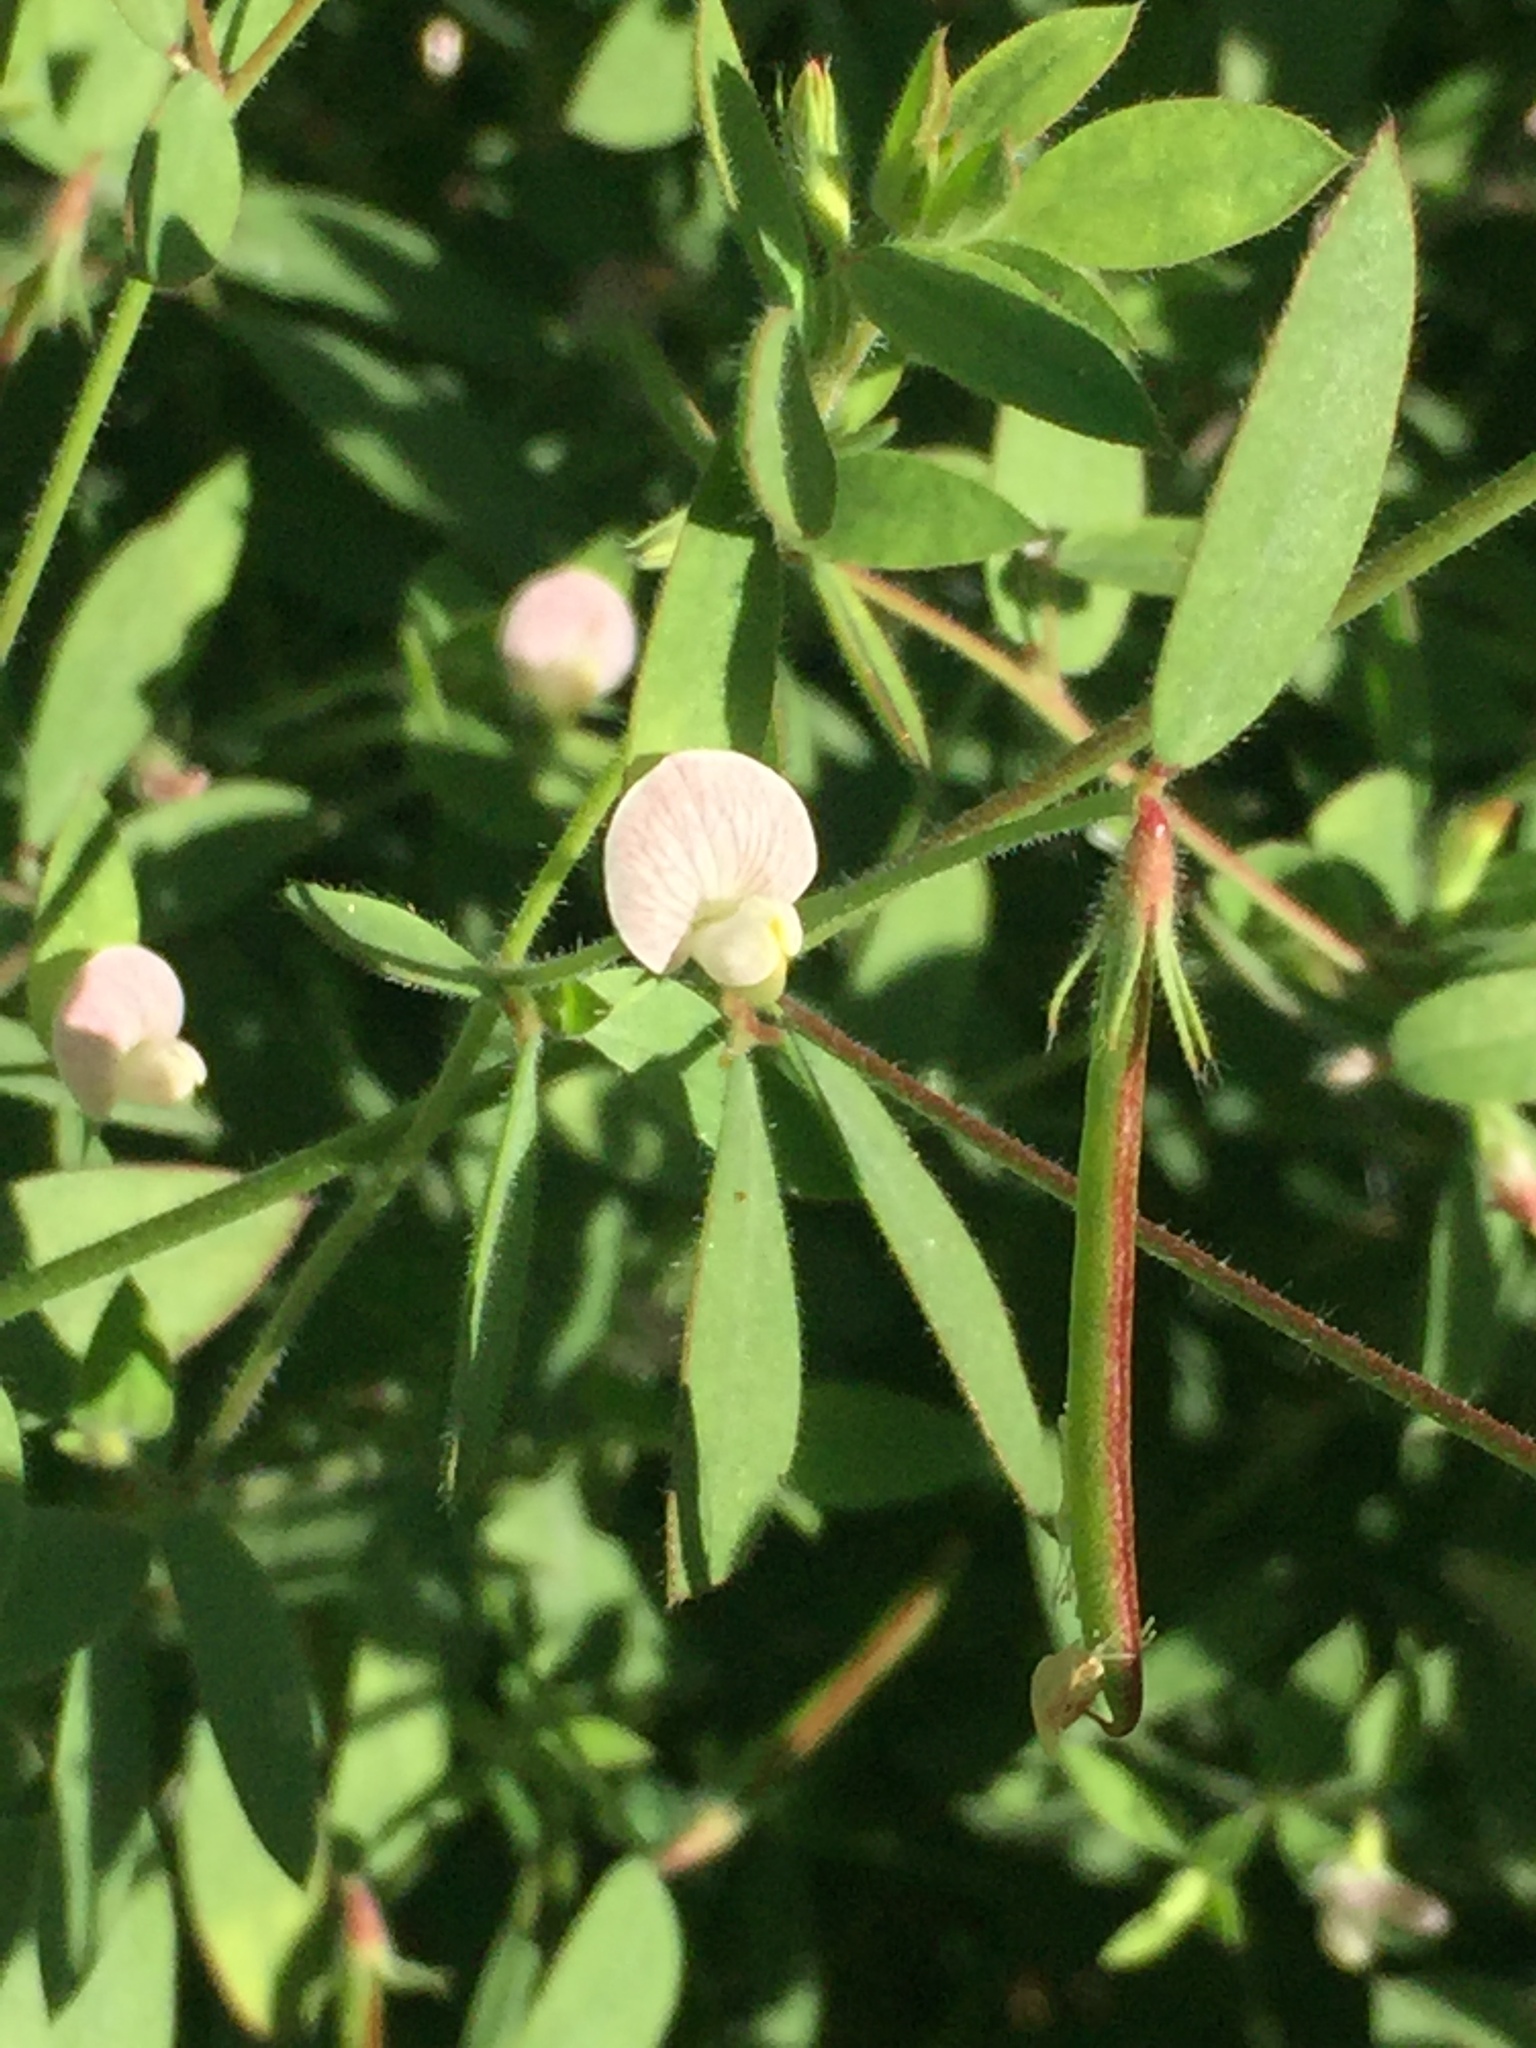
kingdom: Plantae
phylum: Tracheophyta
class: Magnoliopsida
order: Fabales
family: Fabaceae
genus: Acmispon
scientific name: Acmispon americanus
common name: American bird's-foot trefoil
